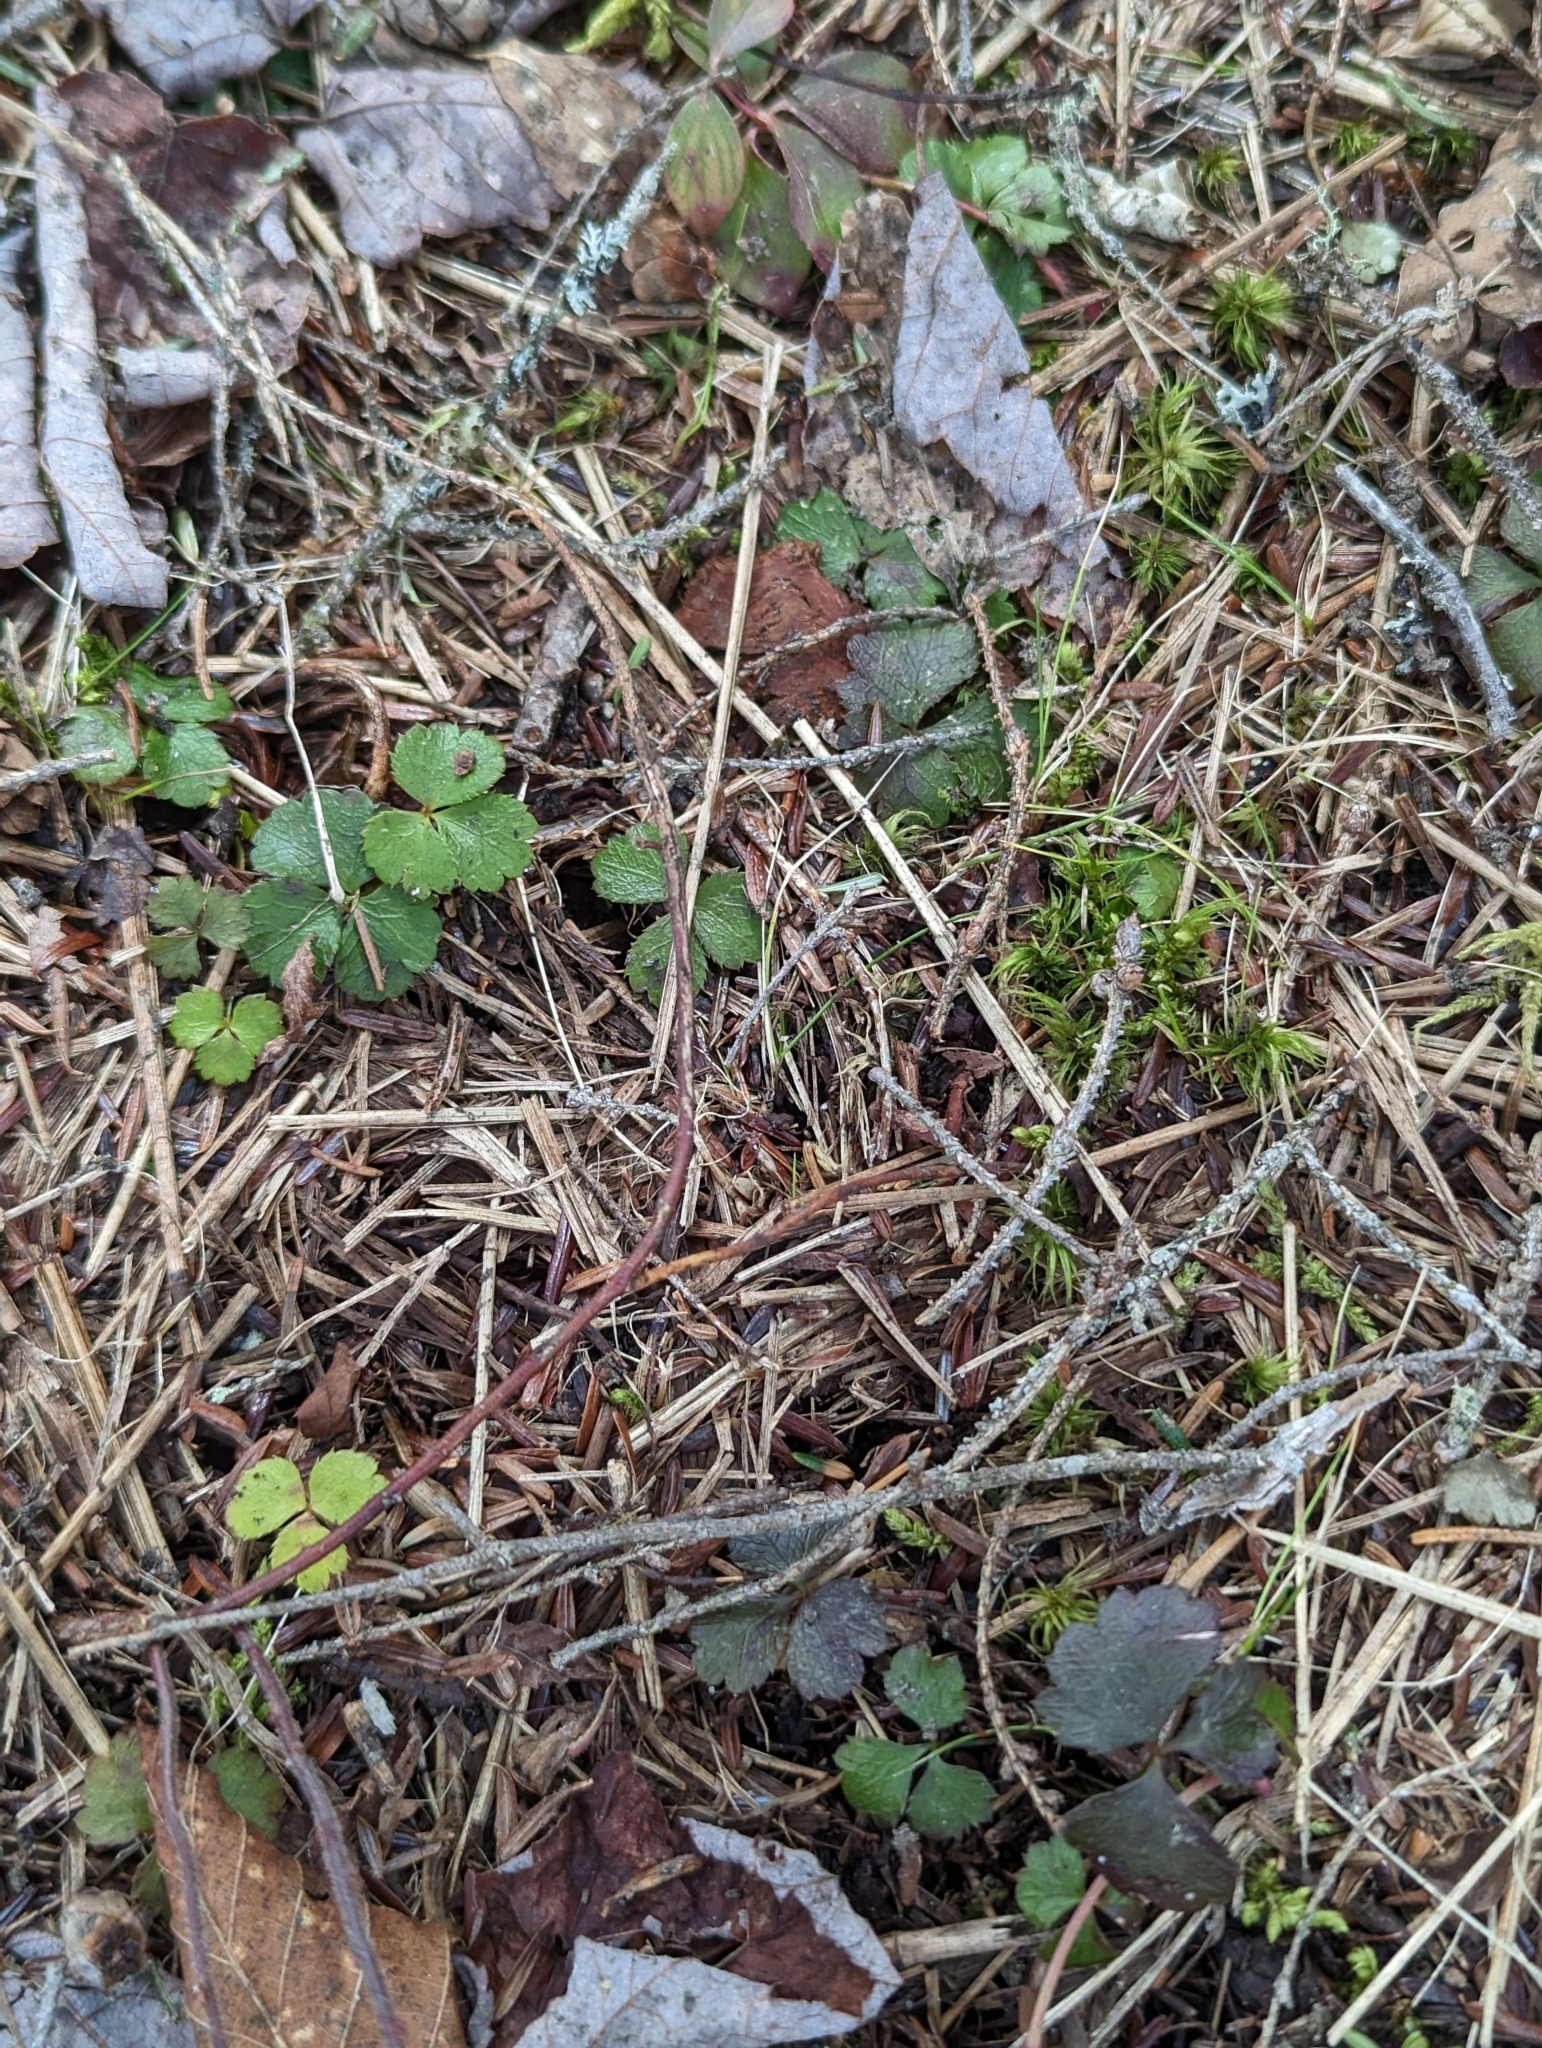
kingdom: Plantae
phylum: Tracheophyta
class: Magnoliopsida
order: Ranunculales
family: Ranunculaceae
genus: Coptis
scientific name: Coptis trifolia
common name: Canker-root
